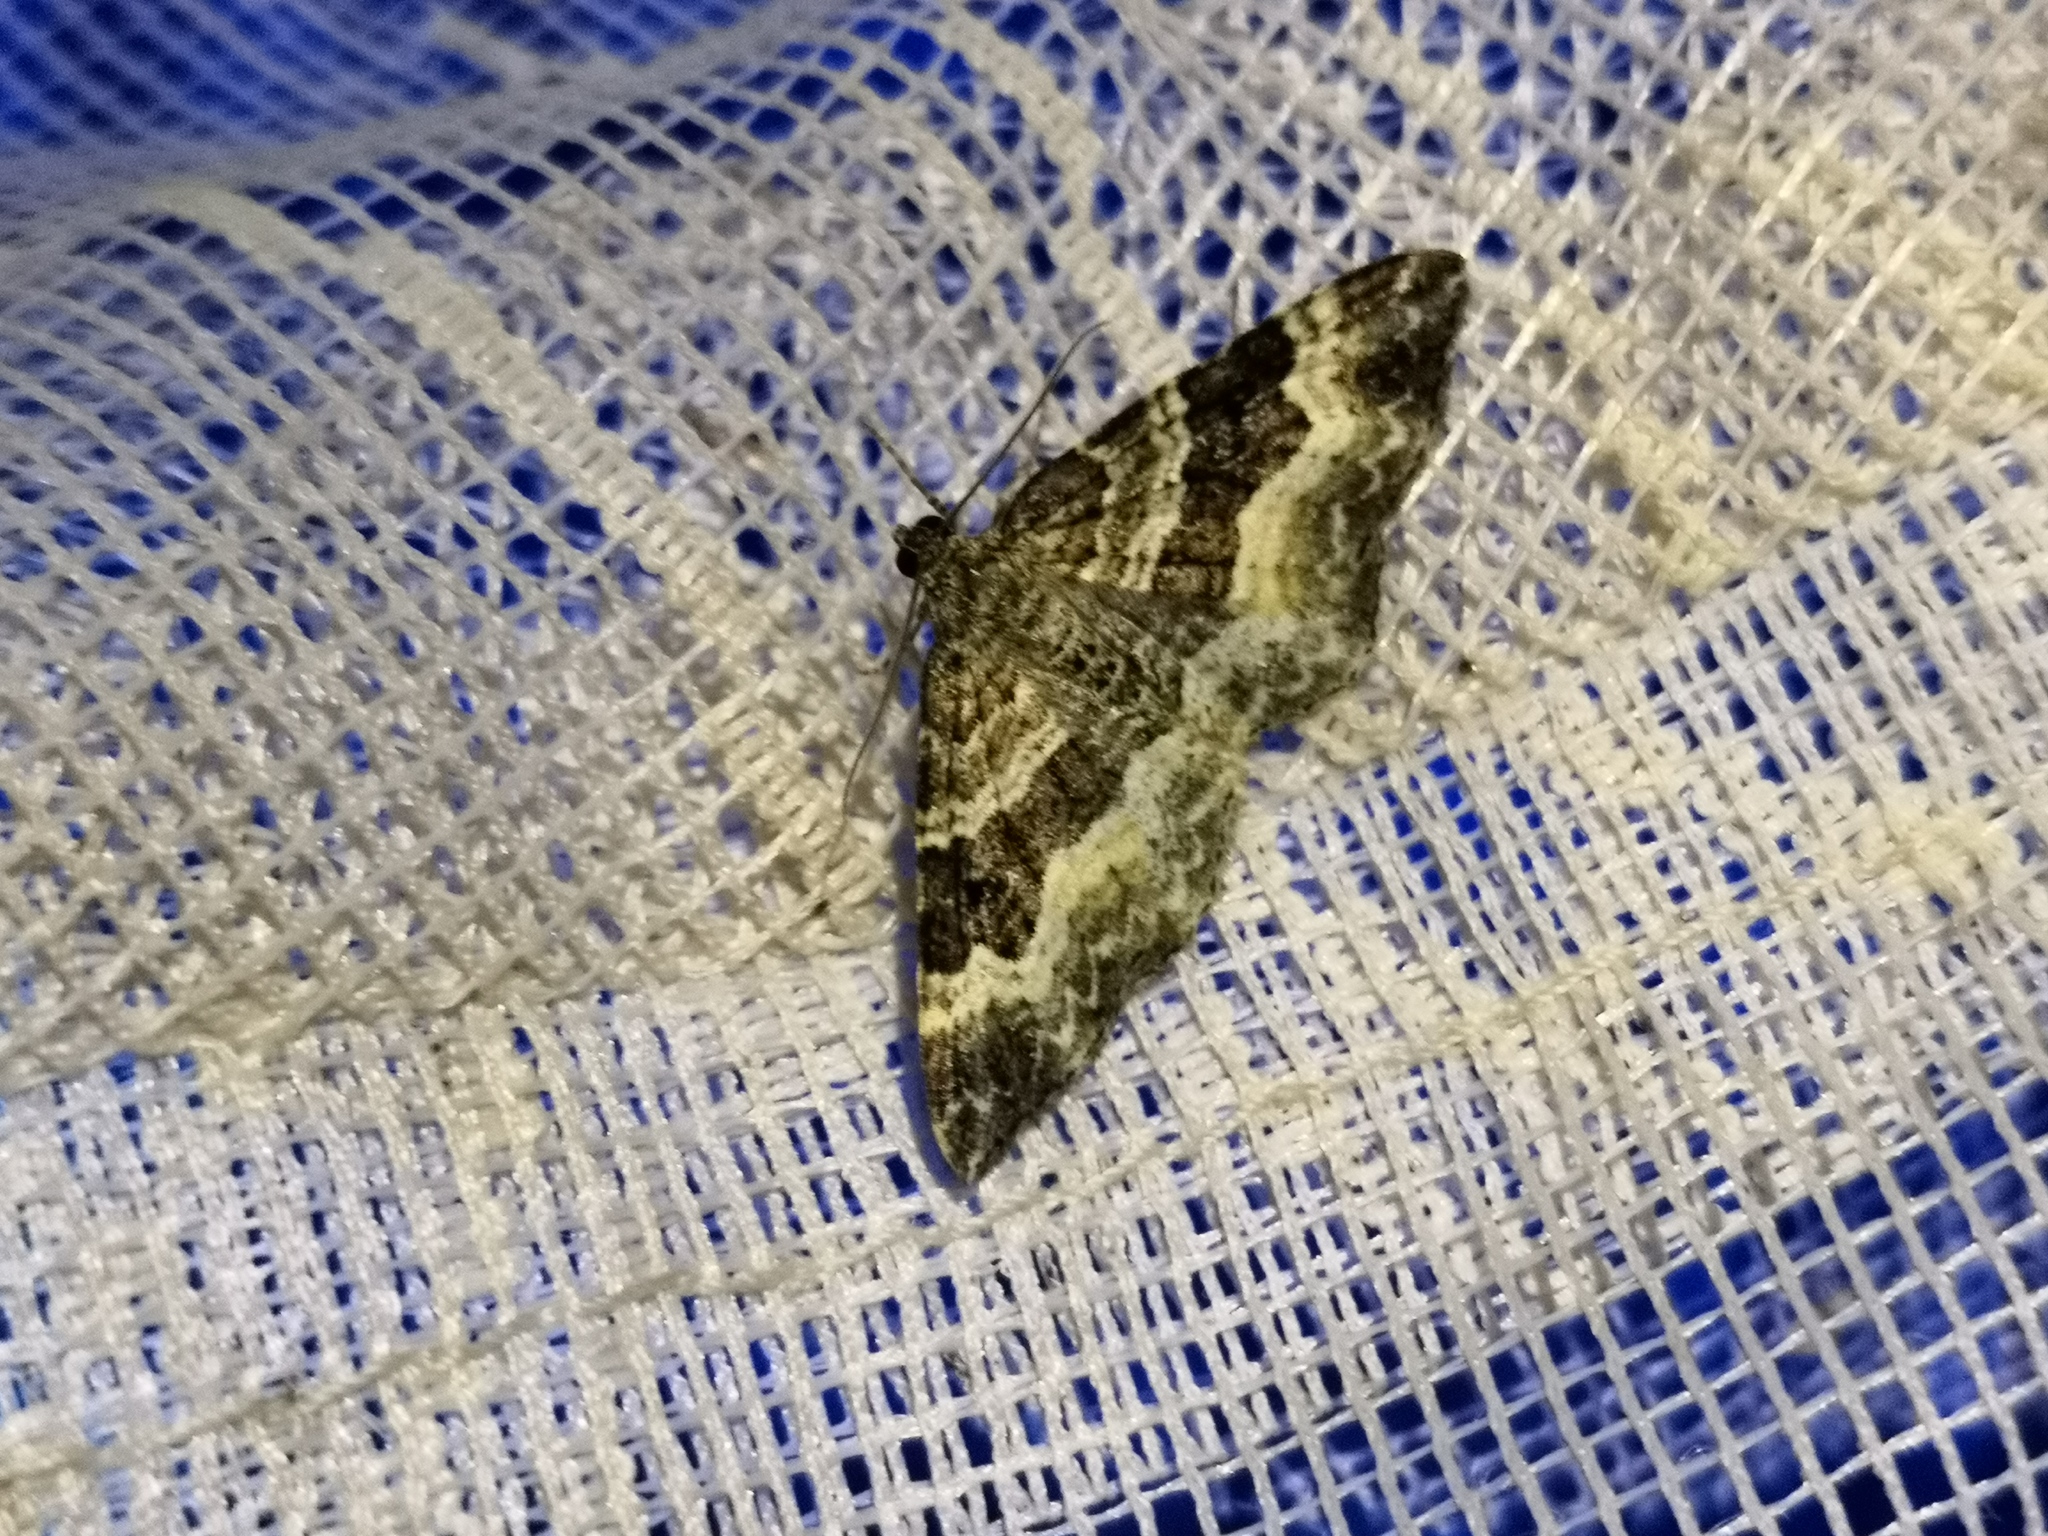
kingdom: Animalia
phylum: Arthropoda
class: Insecta
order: Lepidoptera
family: Geometridae
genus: Epirrhoe
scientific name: Epirrhoe alternata
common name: Common carpet
